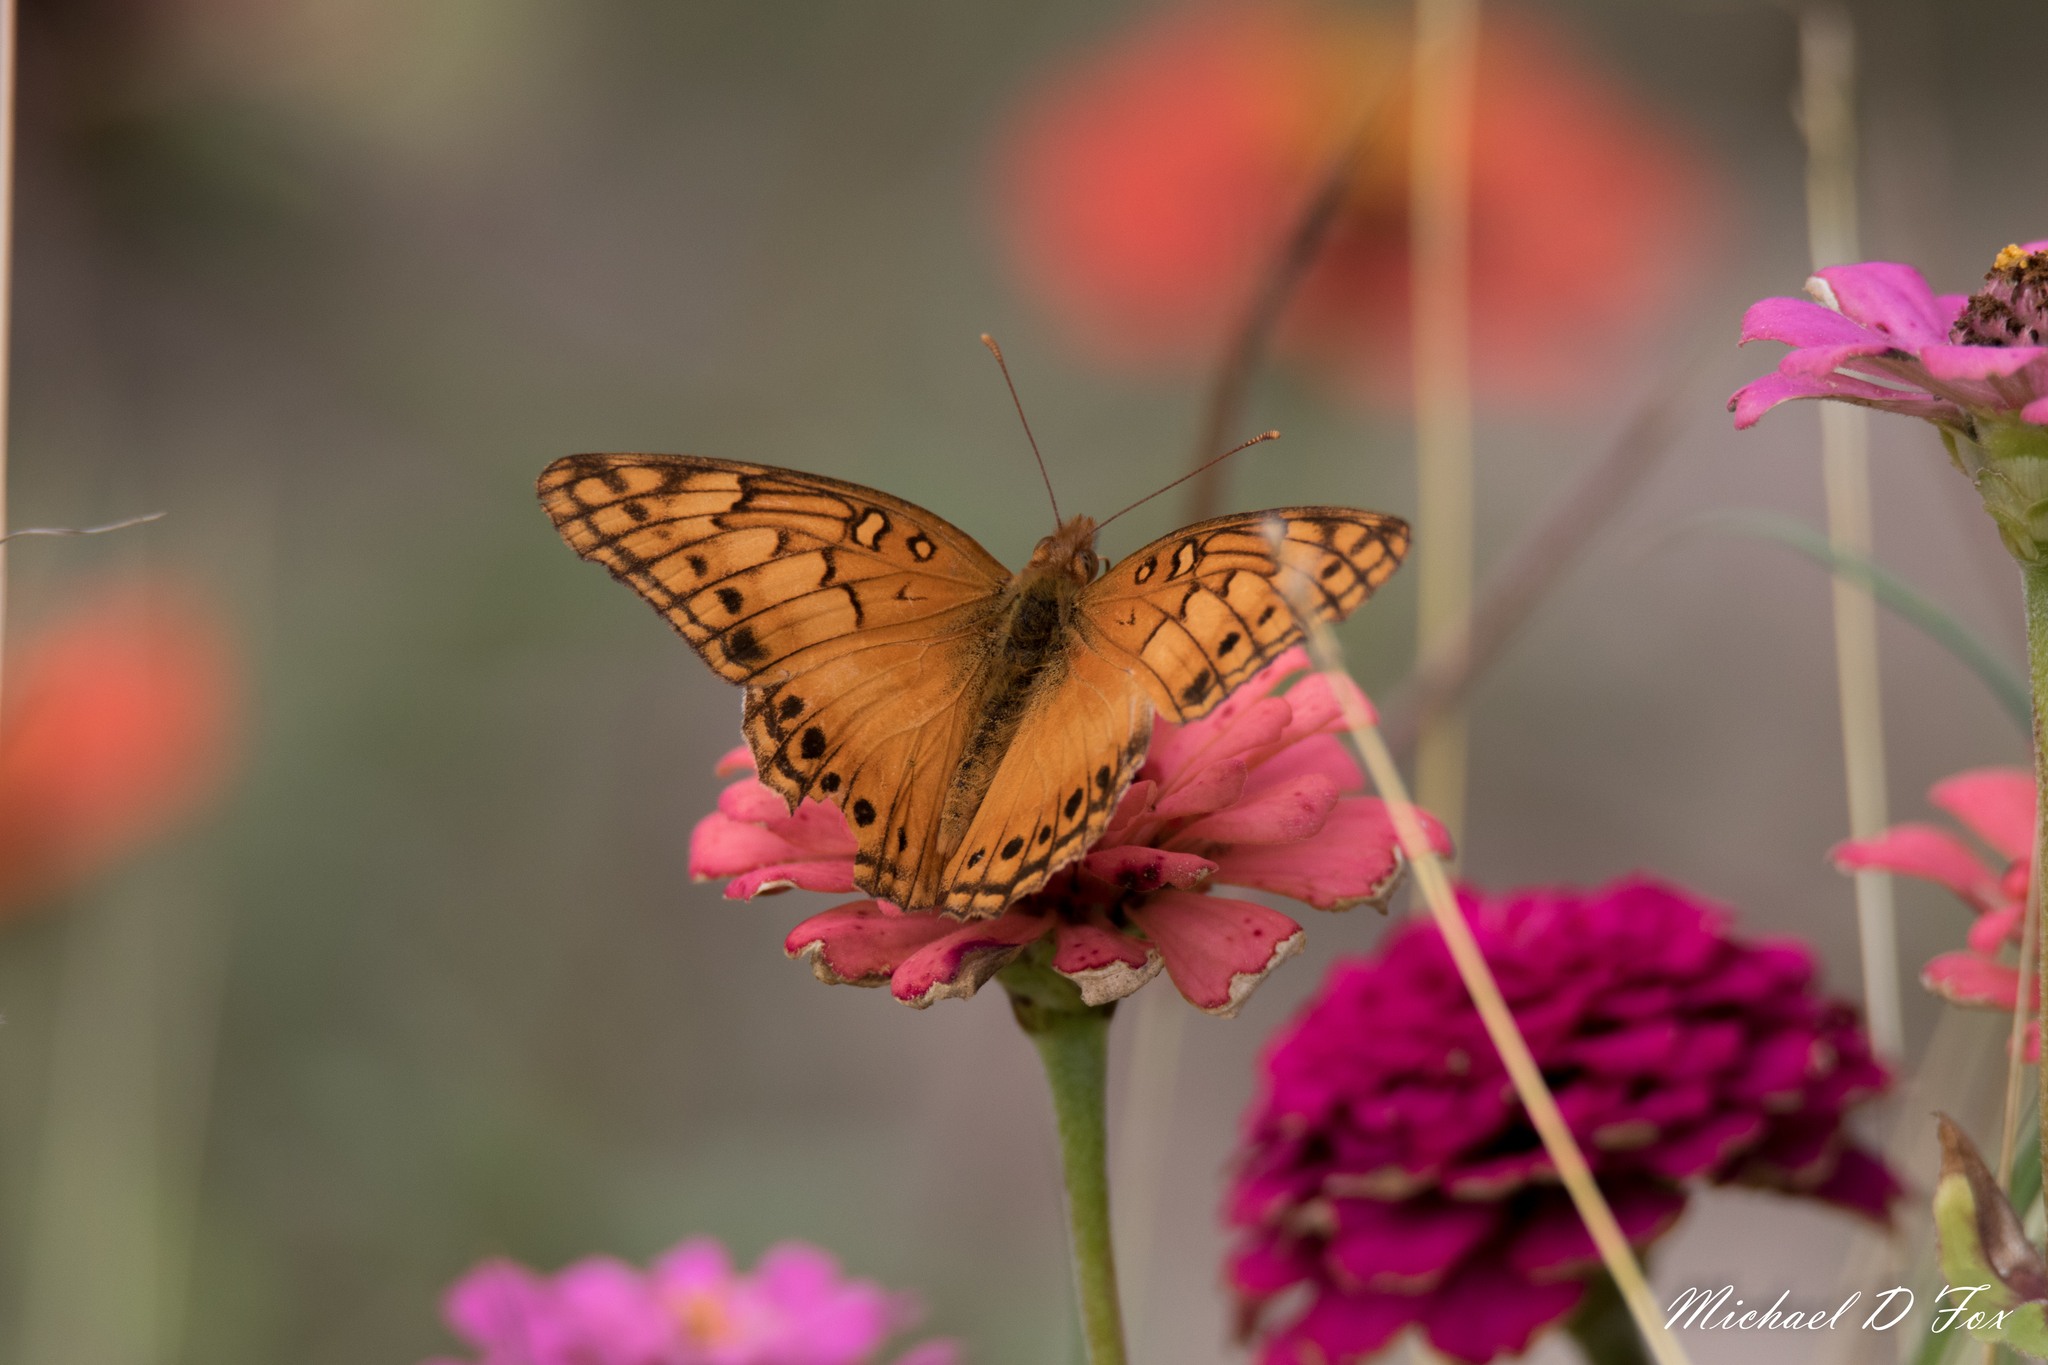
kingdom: Animalia
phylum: Arthropoda
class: Insecta
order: Lepidoptera
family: Nymphalidae
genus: Euptoieta
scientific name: Euptoieta hegesia
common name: Mexican fritillary
